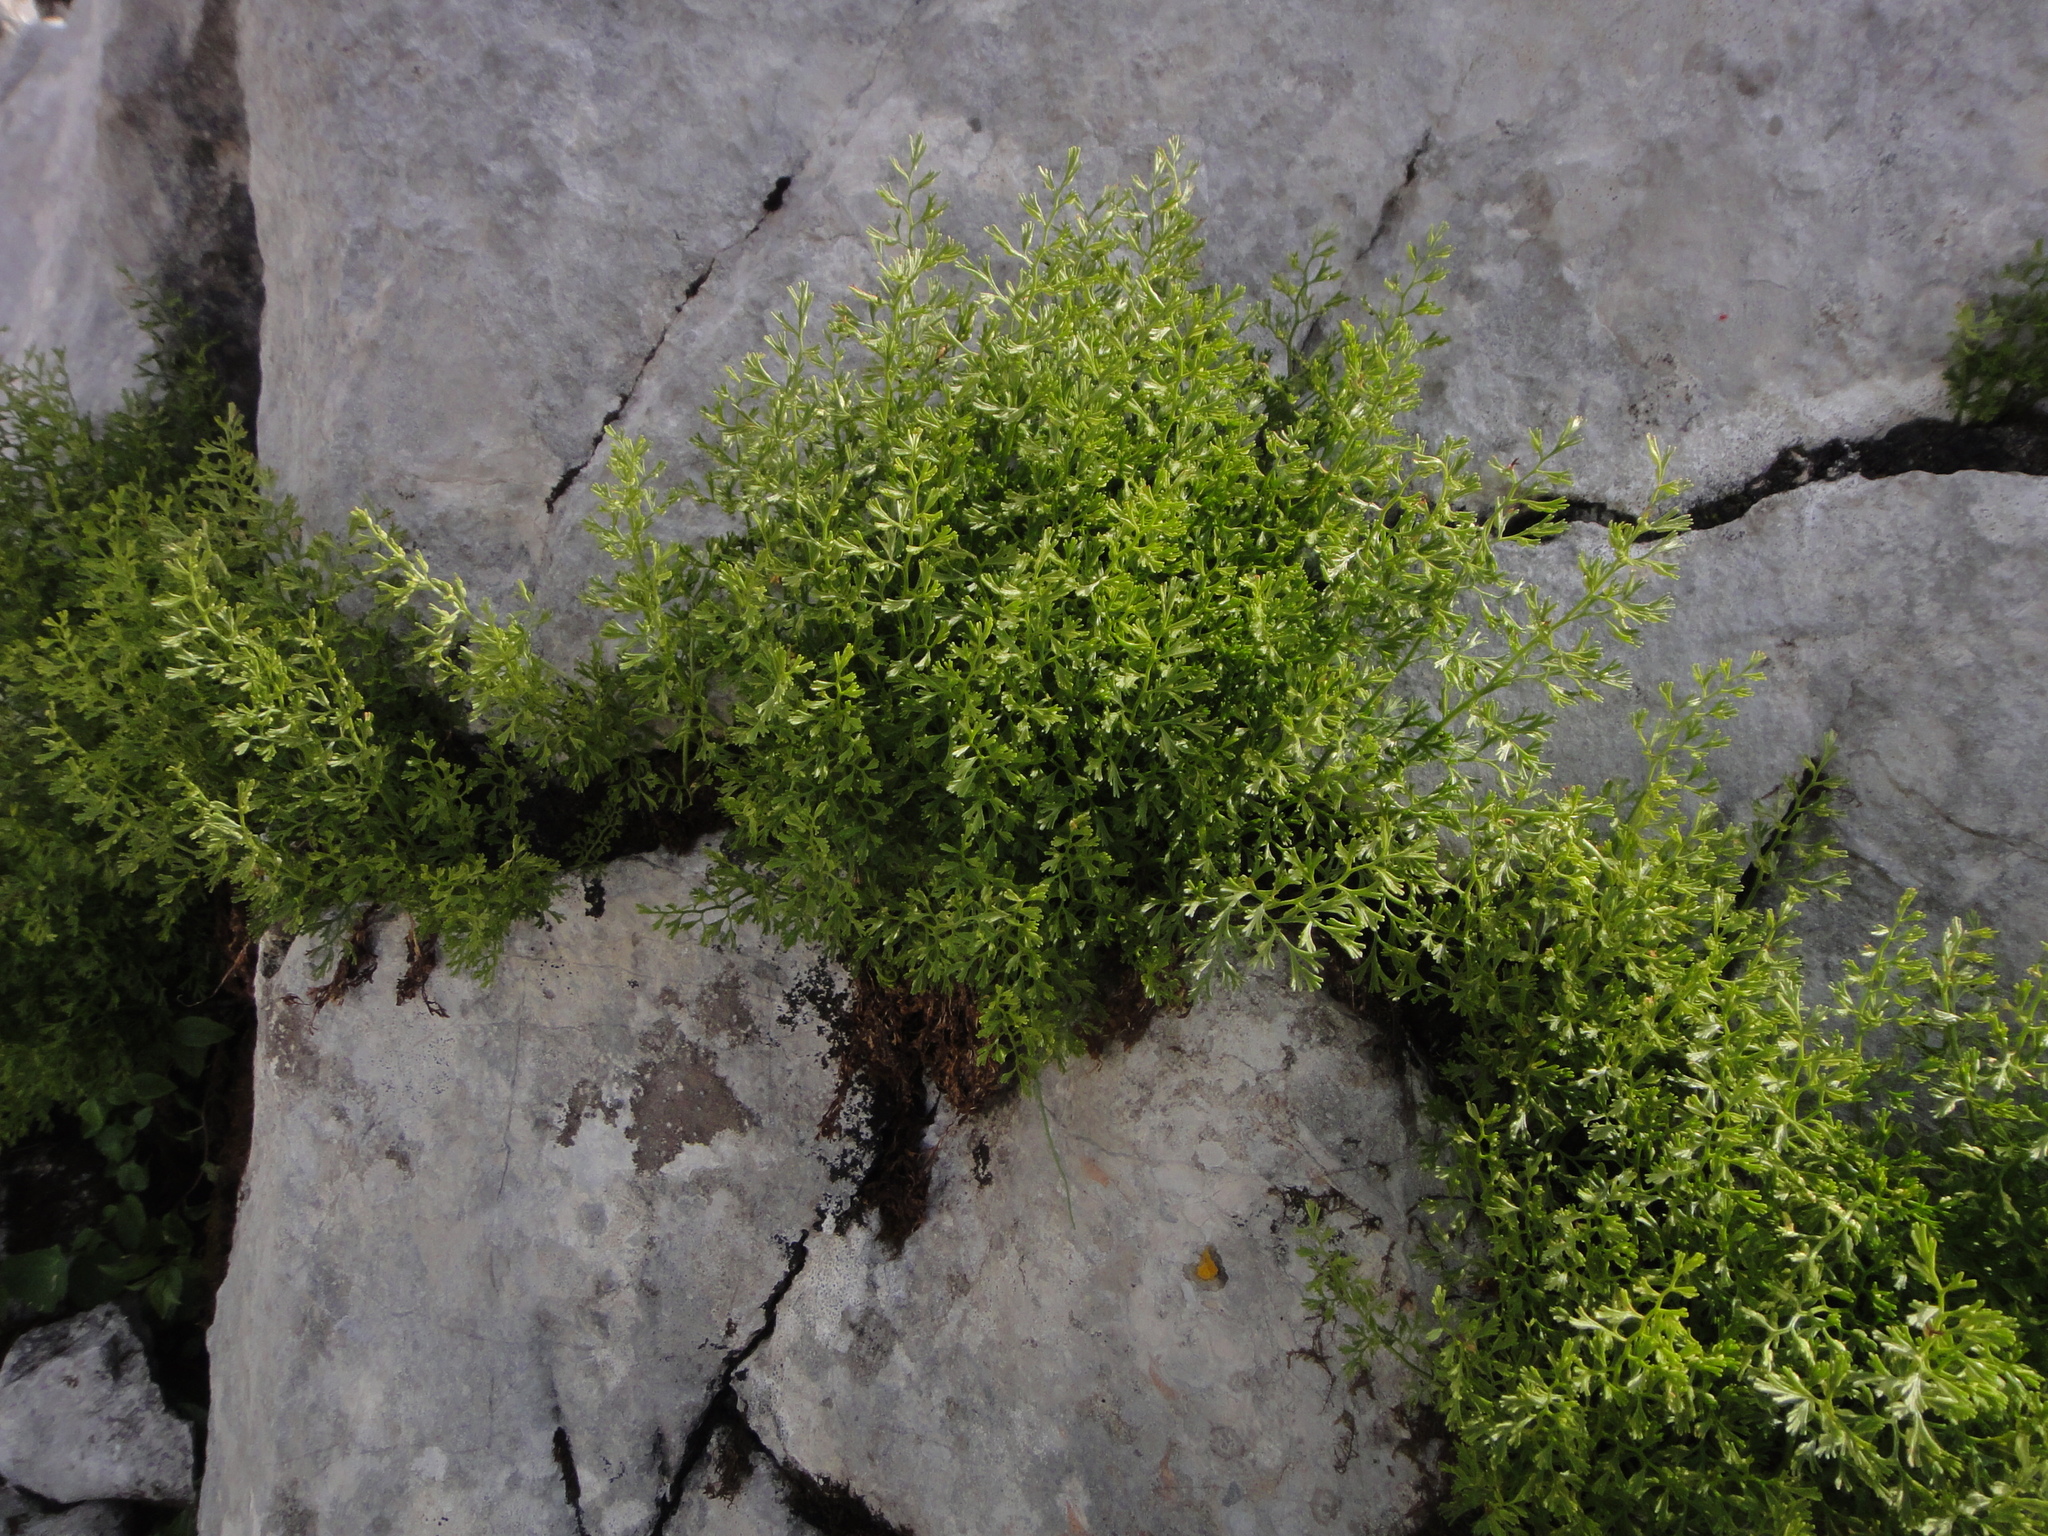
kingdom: Plantae
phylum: Tracheophyta
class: Polypodiopsida
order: Polypodiales
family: Aspleniaceae
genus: Asplenium
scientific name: Asplenium fissum
